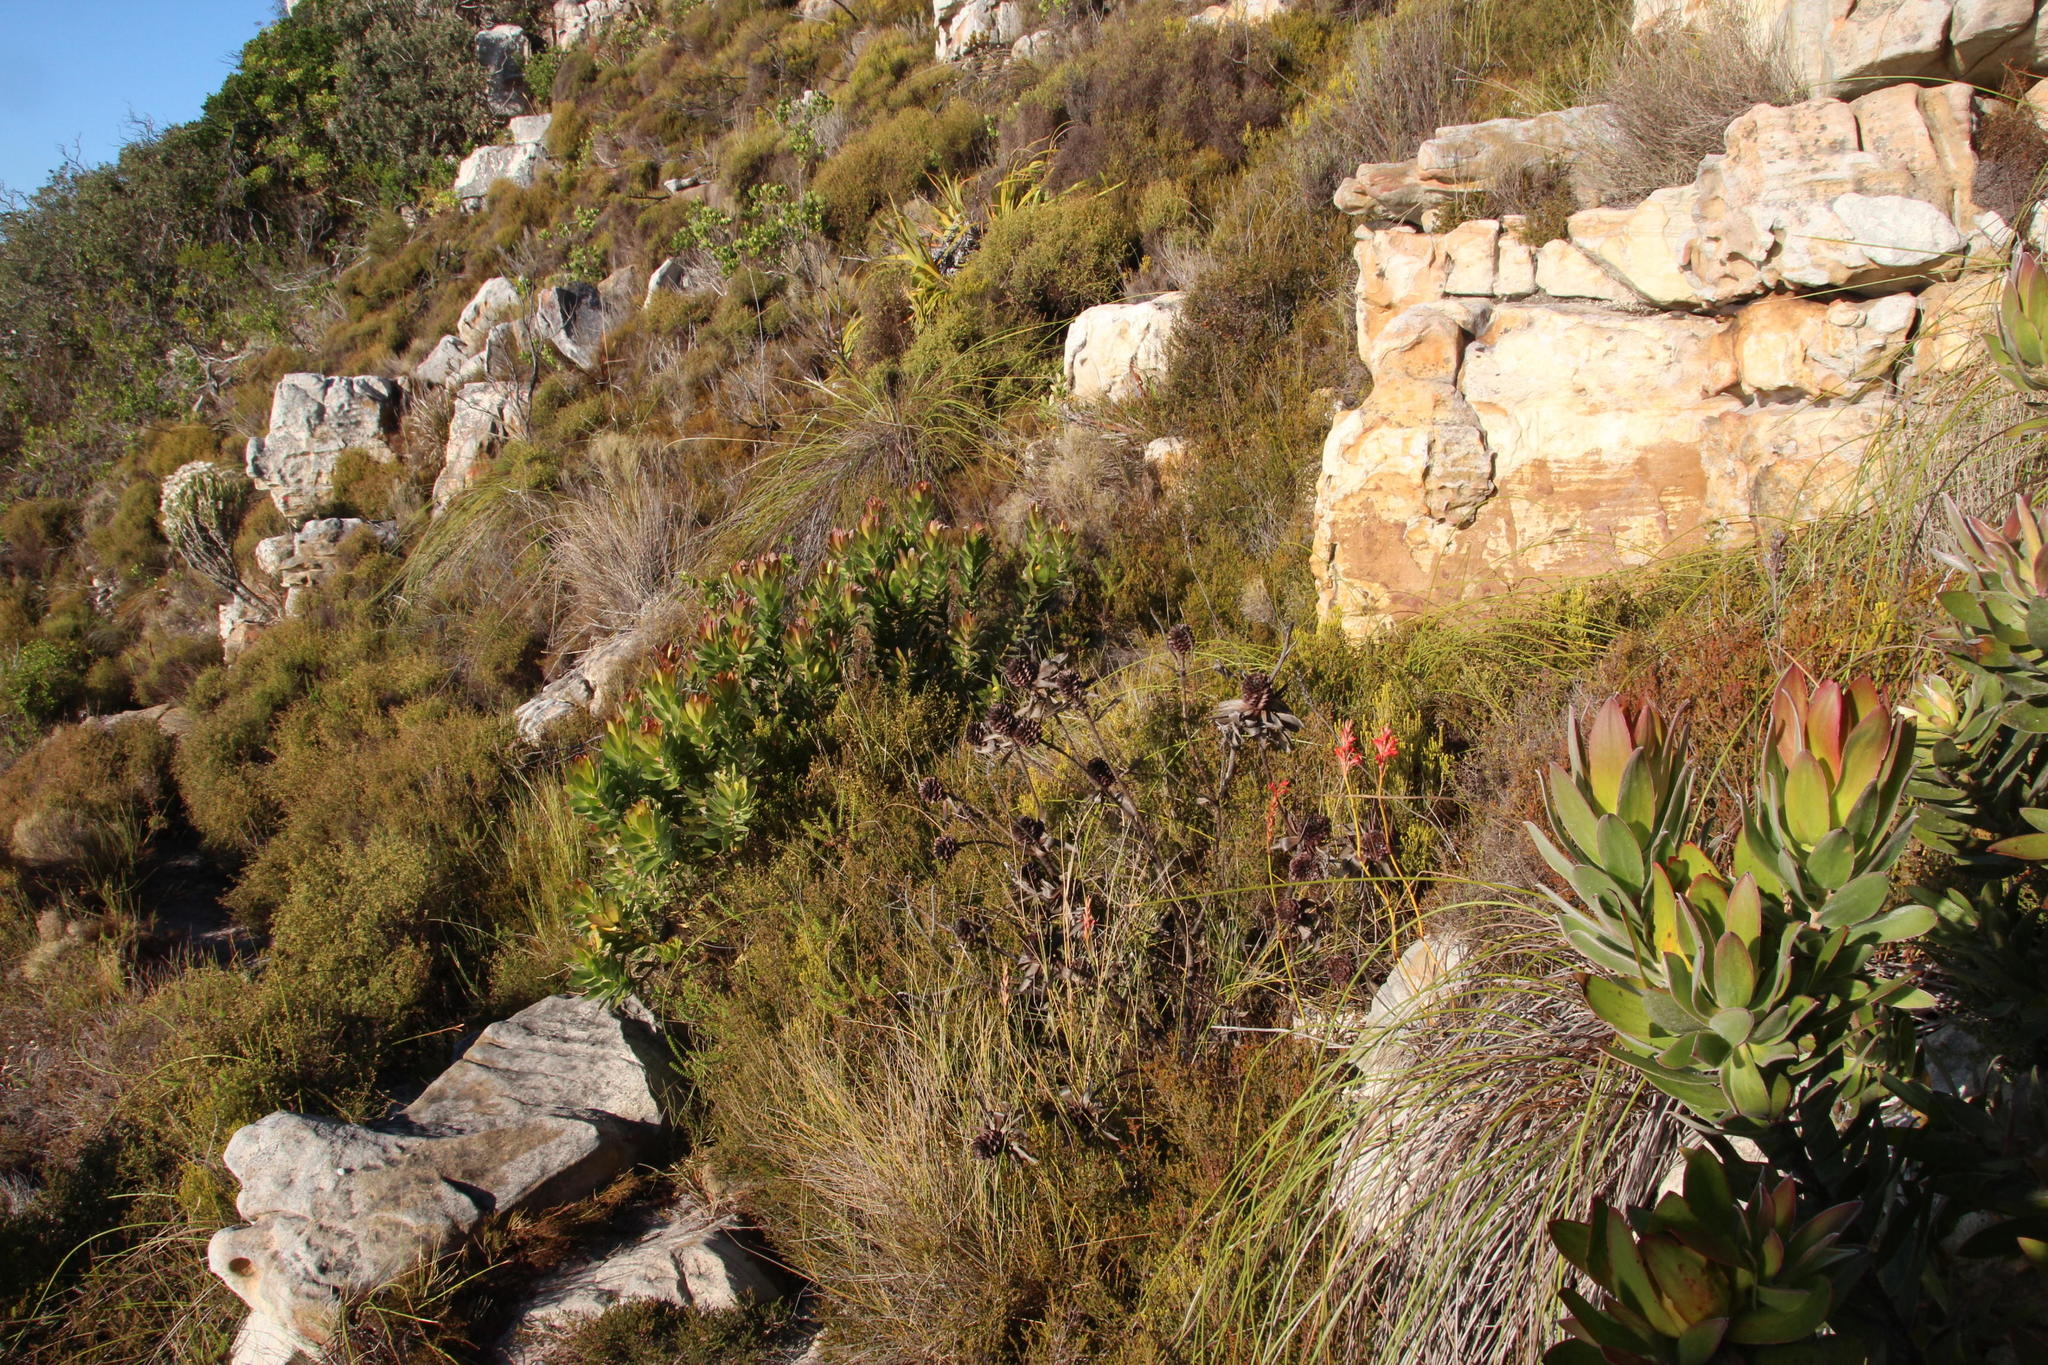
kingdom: Plantae
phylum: Tracheophyta
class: Liliopsida
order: Asparagales
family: Iridaceae
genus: Tritoniopsis
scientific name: Tritoniopsis triticea
